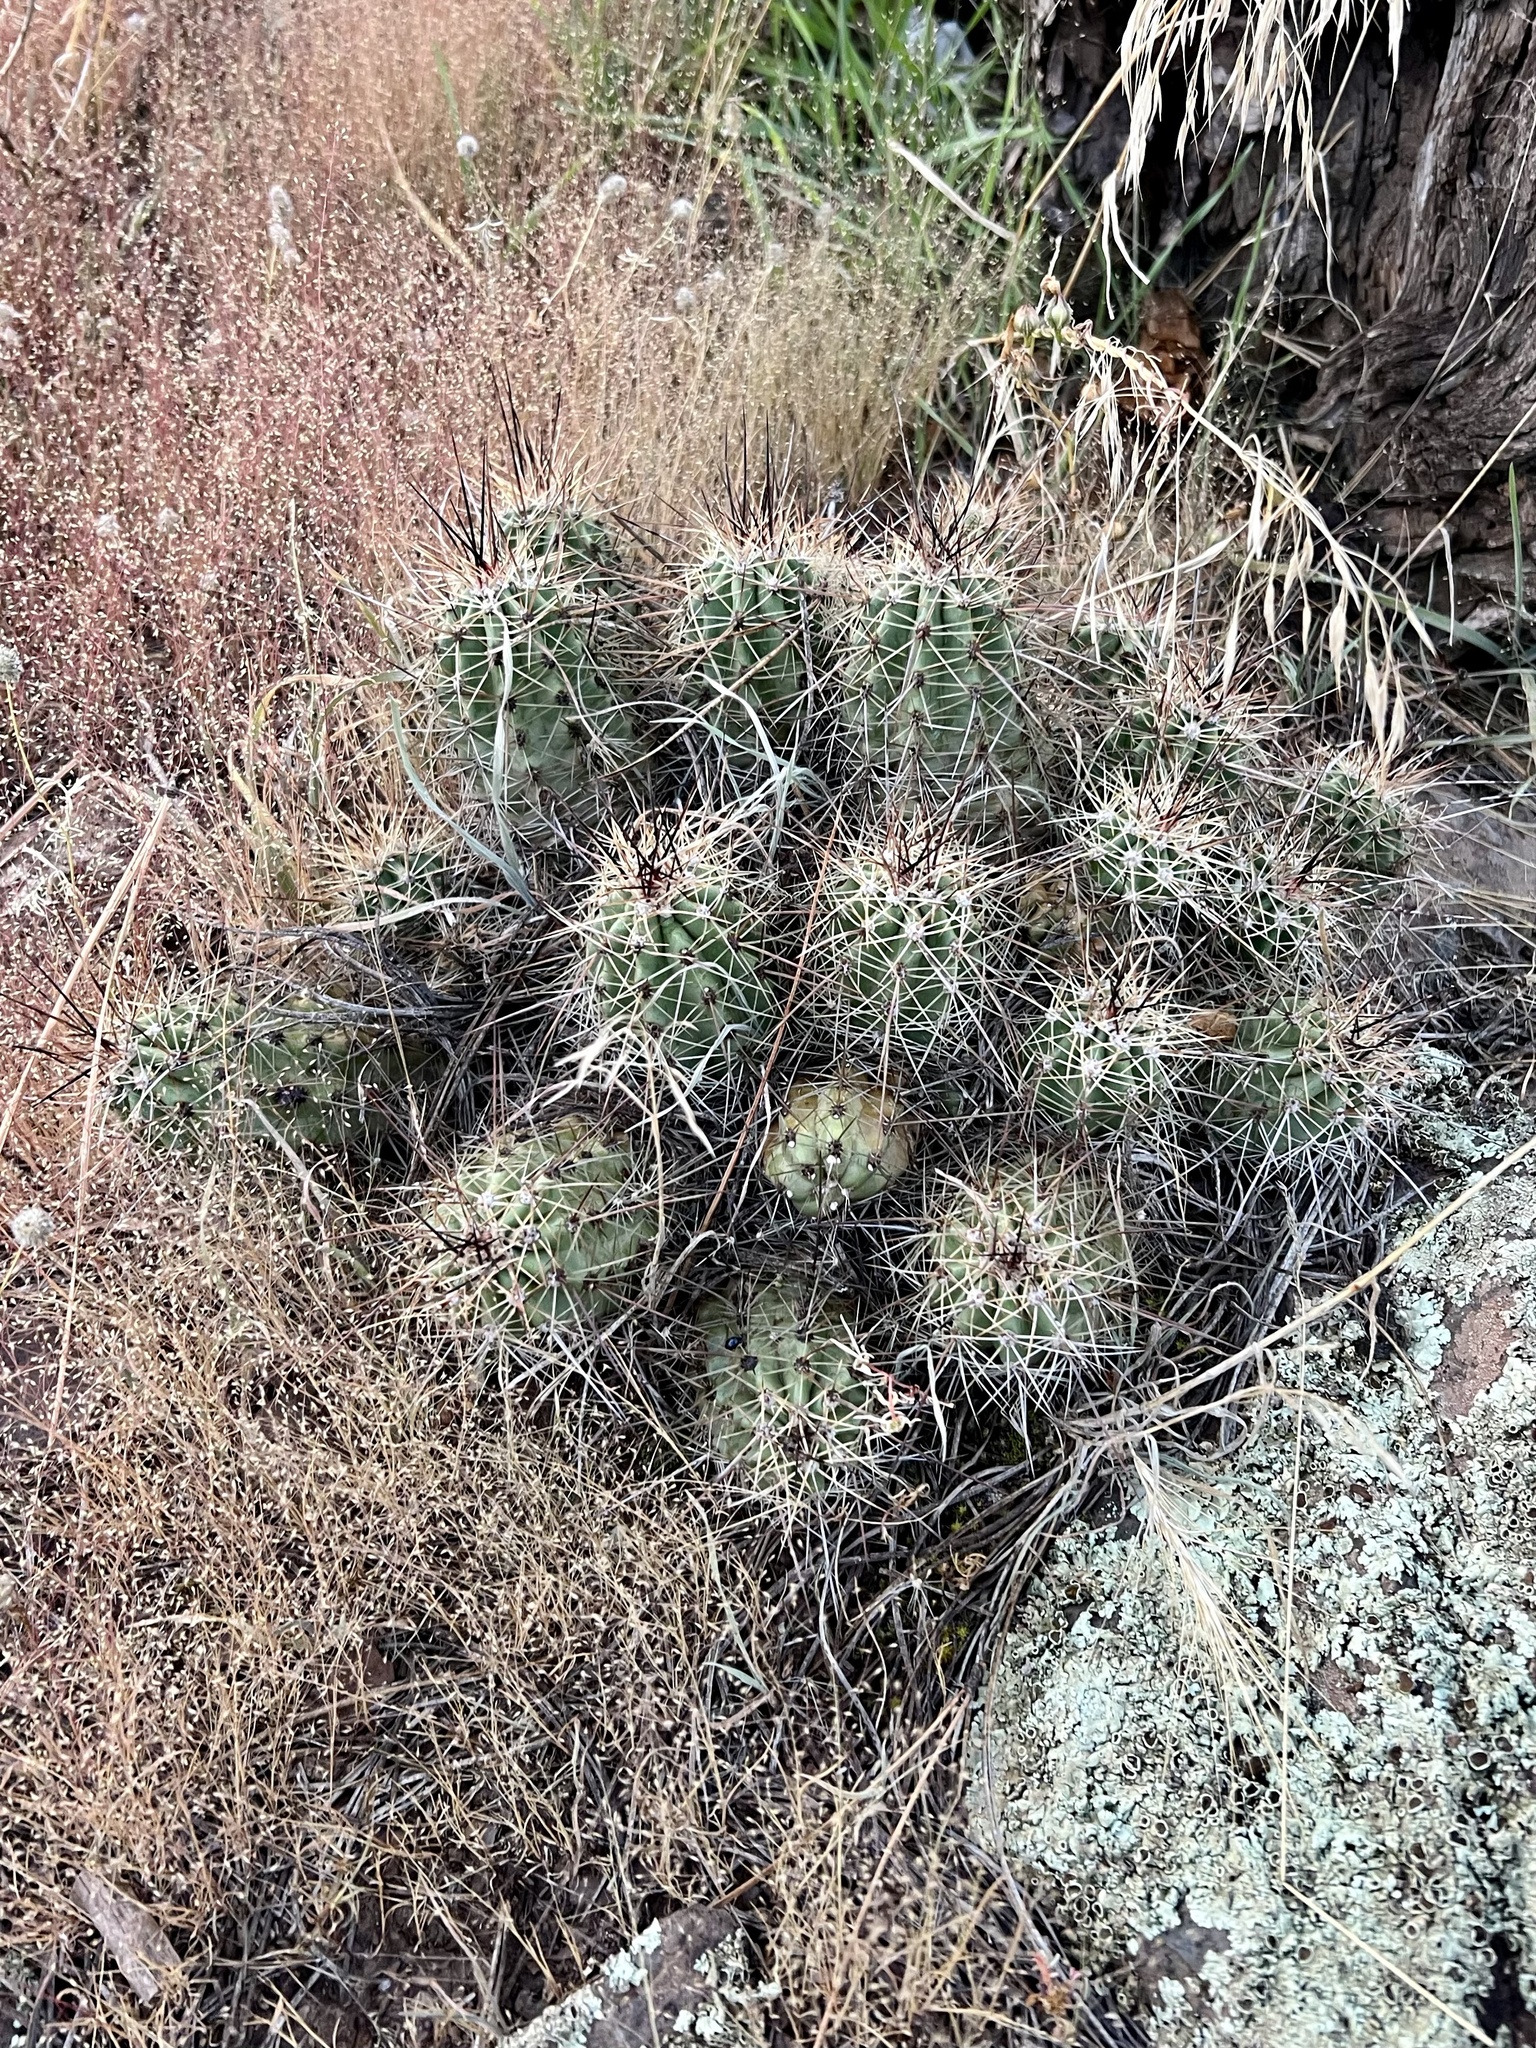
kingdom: Plantae
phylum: Tracheophyta
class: Magnoliopsida
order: Caryophyllales
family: Cactaceae
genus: Echinocereus
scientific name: Echinocereus bakeri
